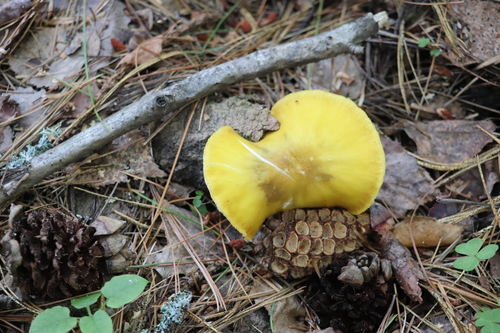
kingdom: Fungi
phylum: Basidiomycota
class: Agaricomycetes
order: Agaricales
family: Pluteaceae
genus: Pluteus
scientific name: Pluteus leoninus
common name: Lion shield
